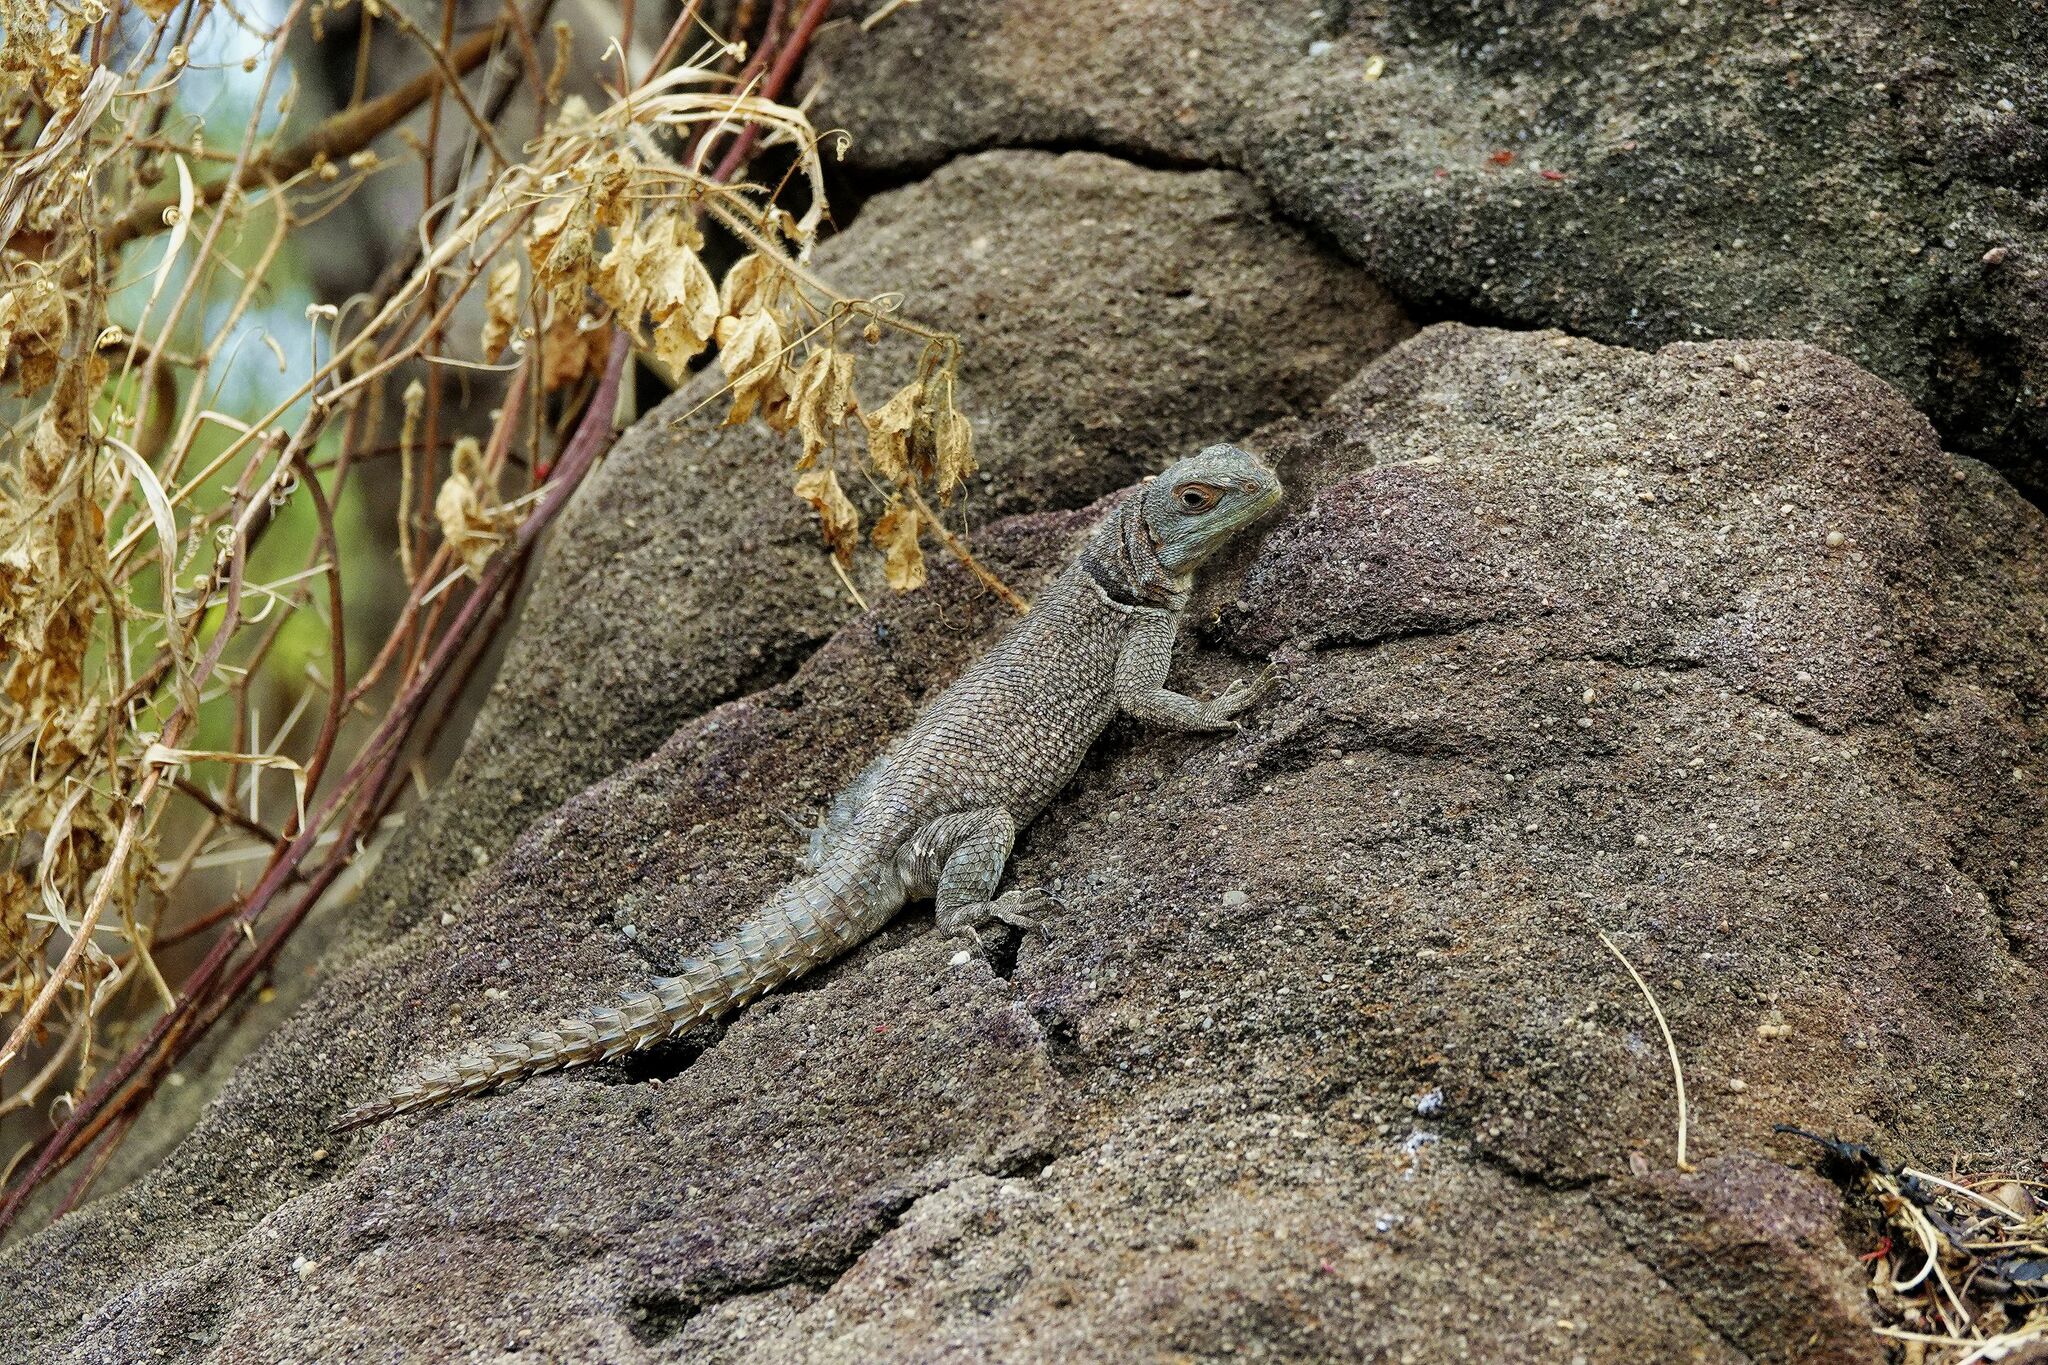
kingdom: Animalia
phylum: Chordata
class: Squamata
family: Opluridae
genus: Oplurus
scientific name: Oplurus cuvieri
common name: Cuvier's madagascar swift
